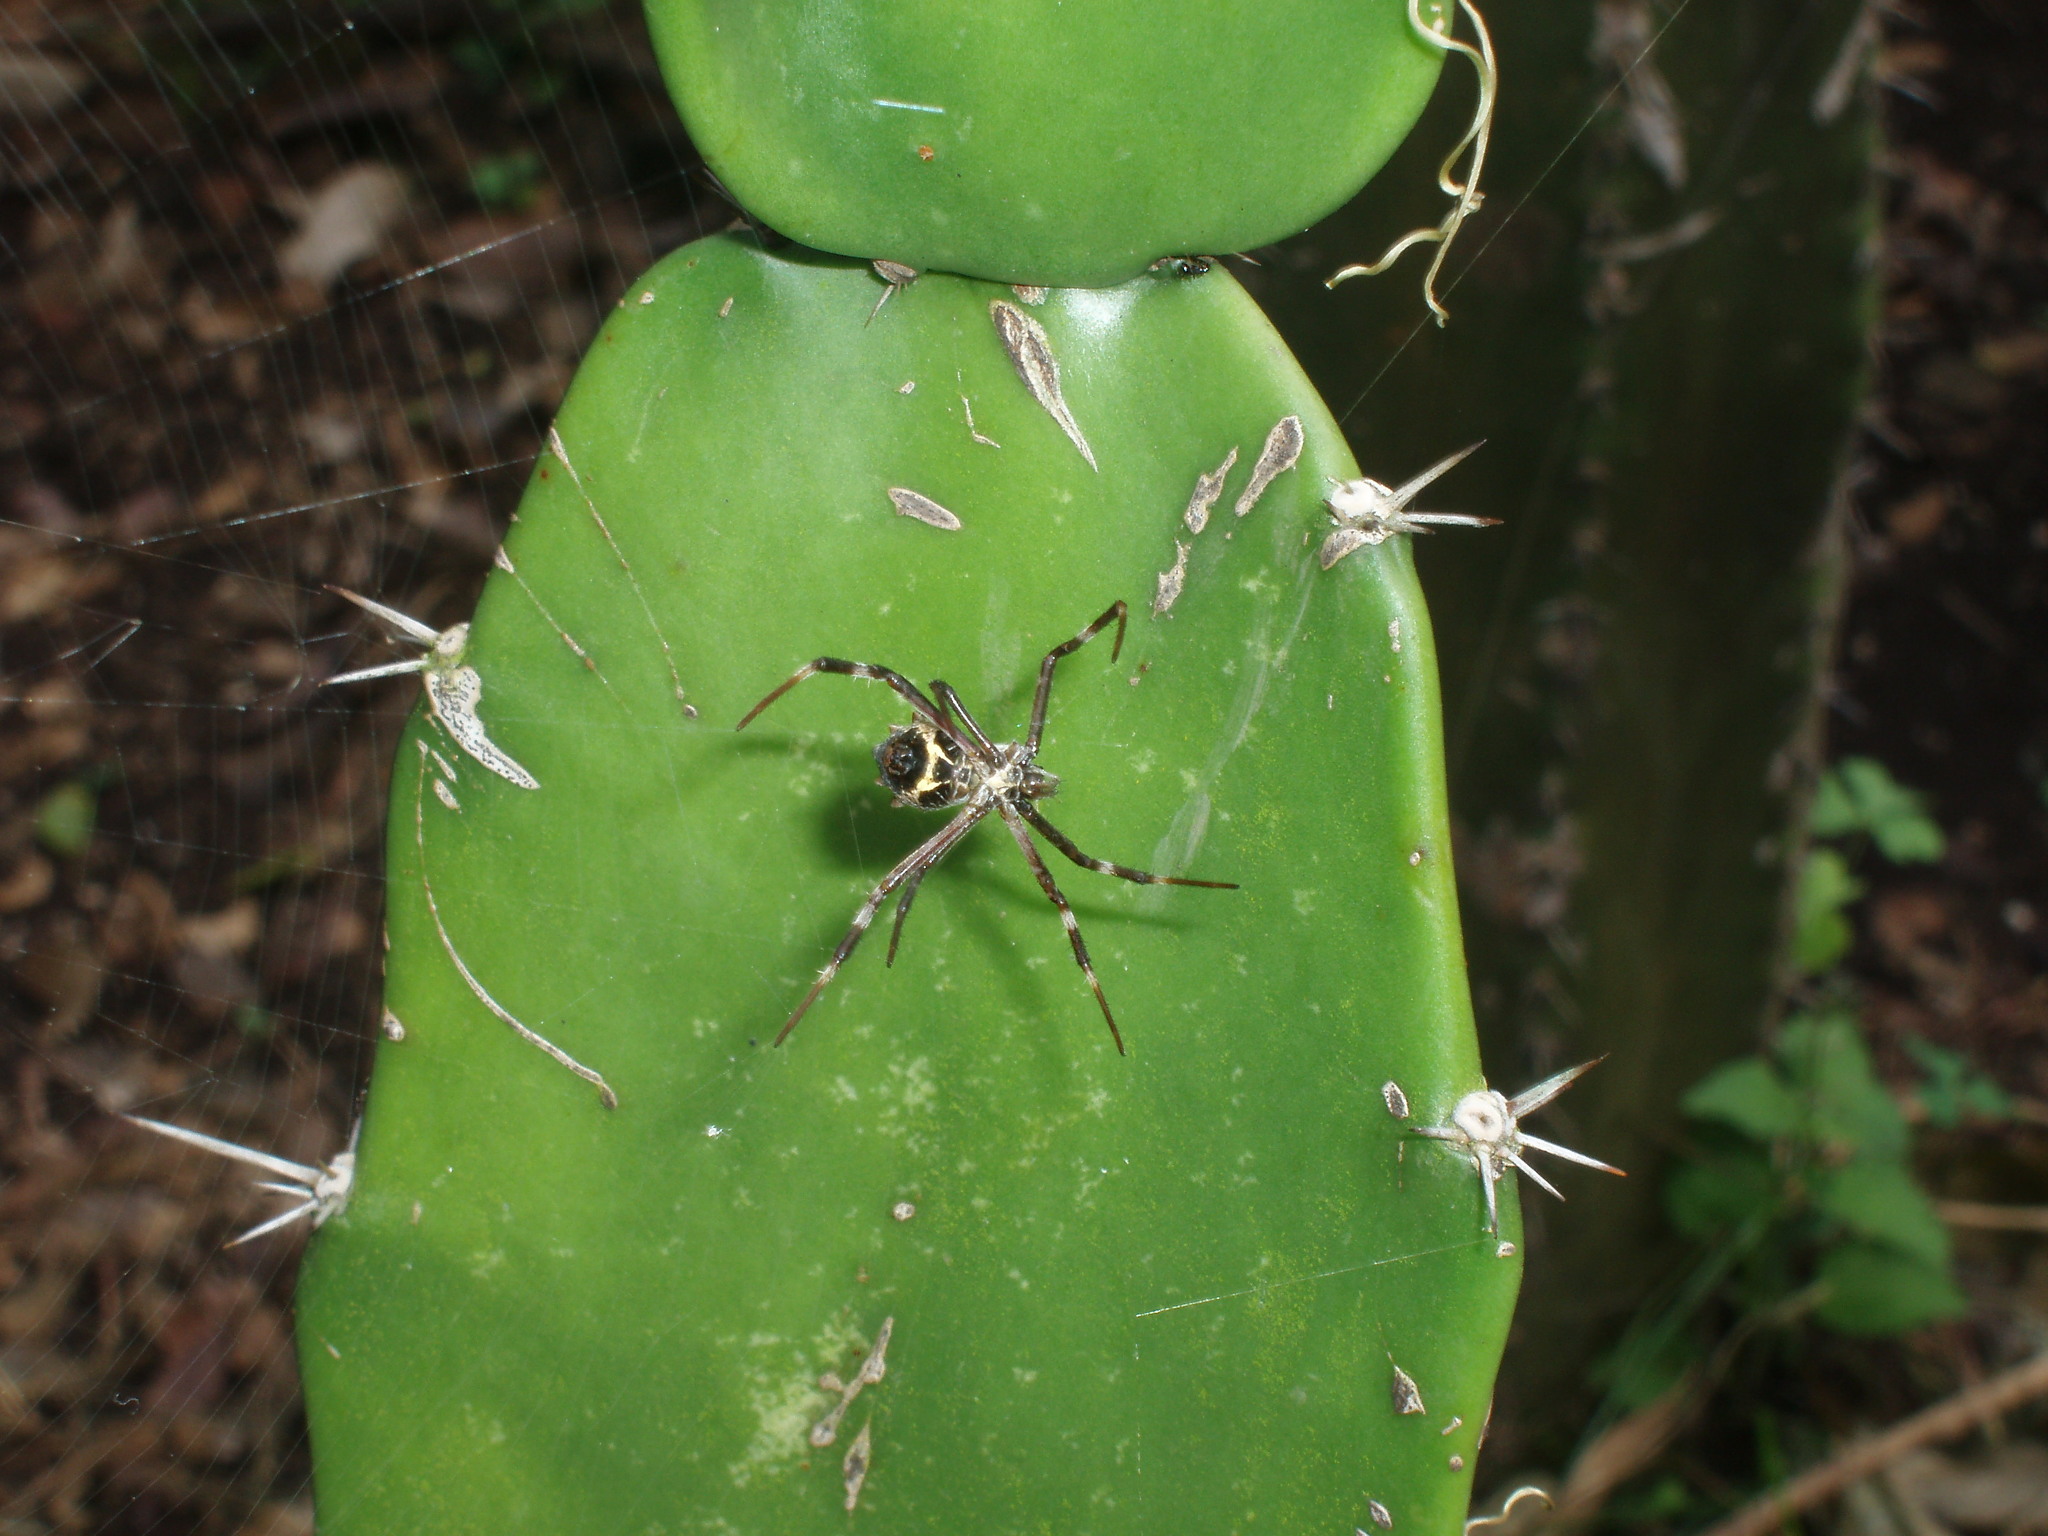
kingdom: Animalia
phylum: Arthropoda
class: Arachnida
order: Araneae
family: Araneidae
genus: Argiope
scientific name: Argiope argentata
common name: Orb weavers
